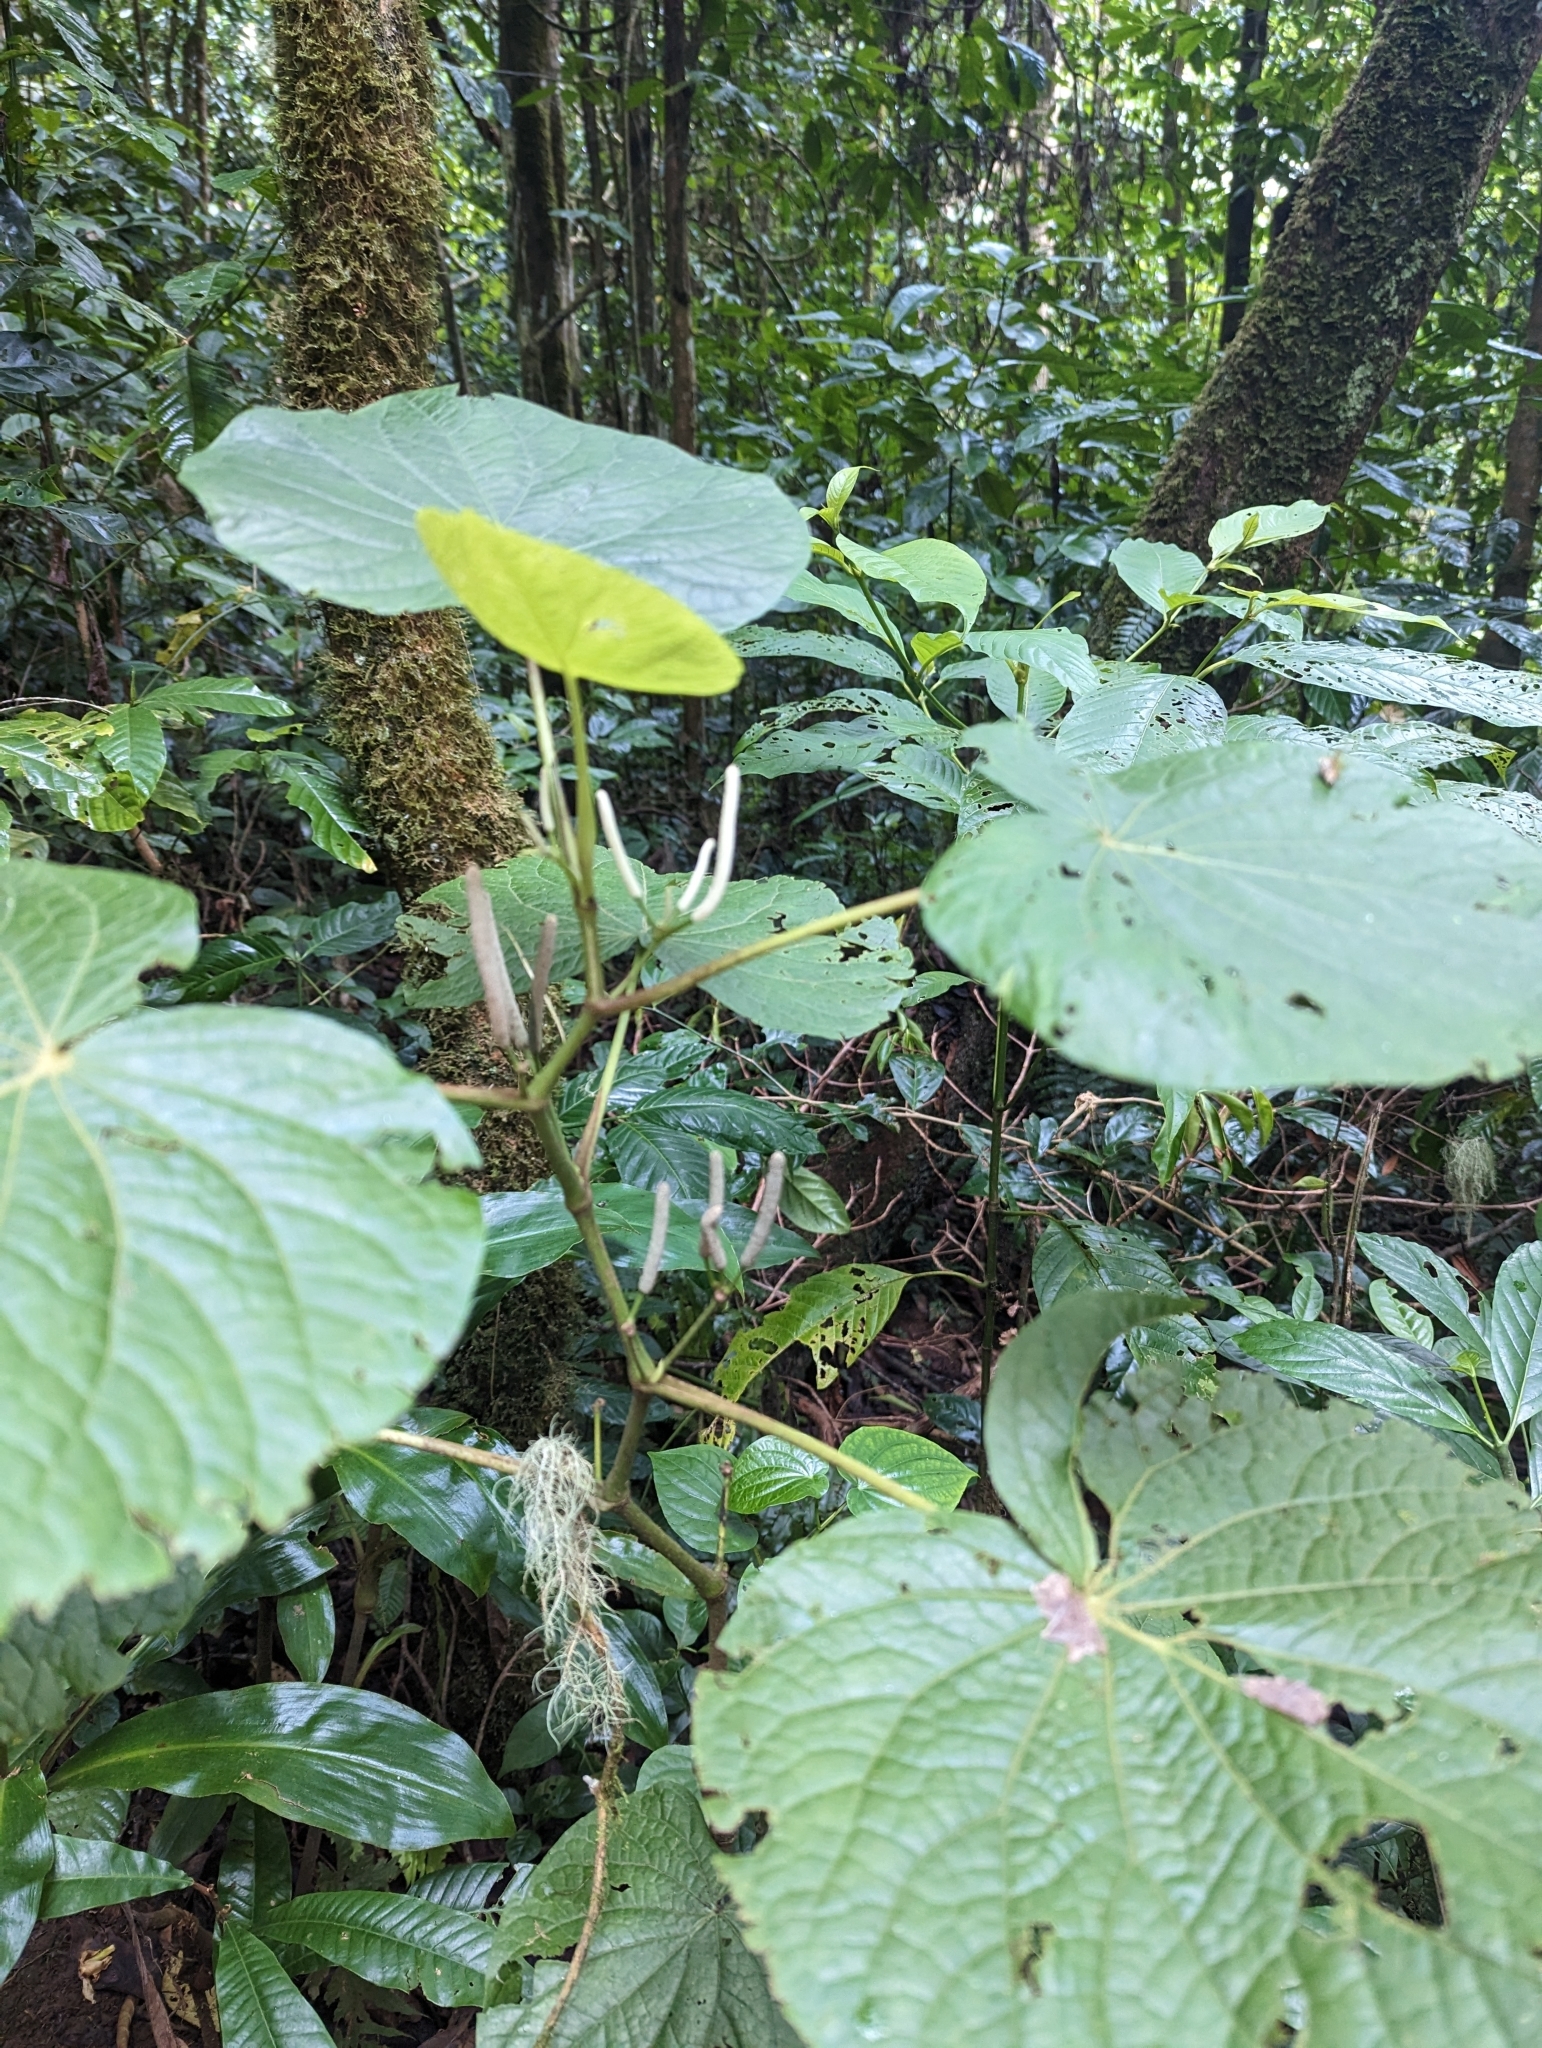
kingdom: Plantae
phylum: Tracheophyta
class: Magnoliopsida
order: Piperales
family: Piperaceae
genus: Piper
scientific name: Piper umbellatum
